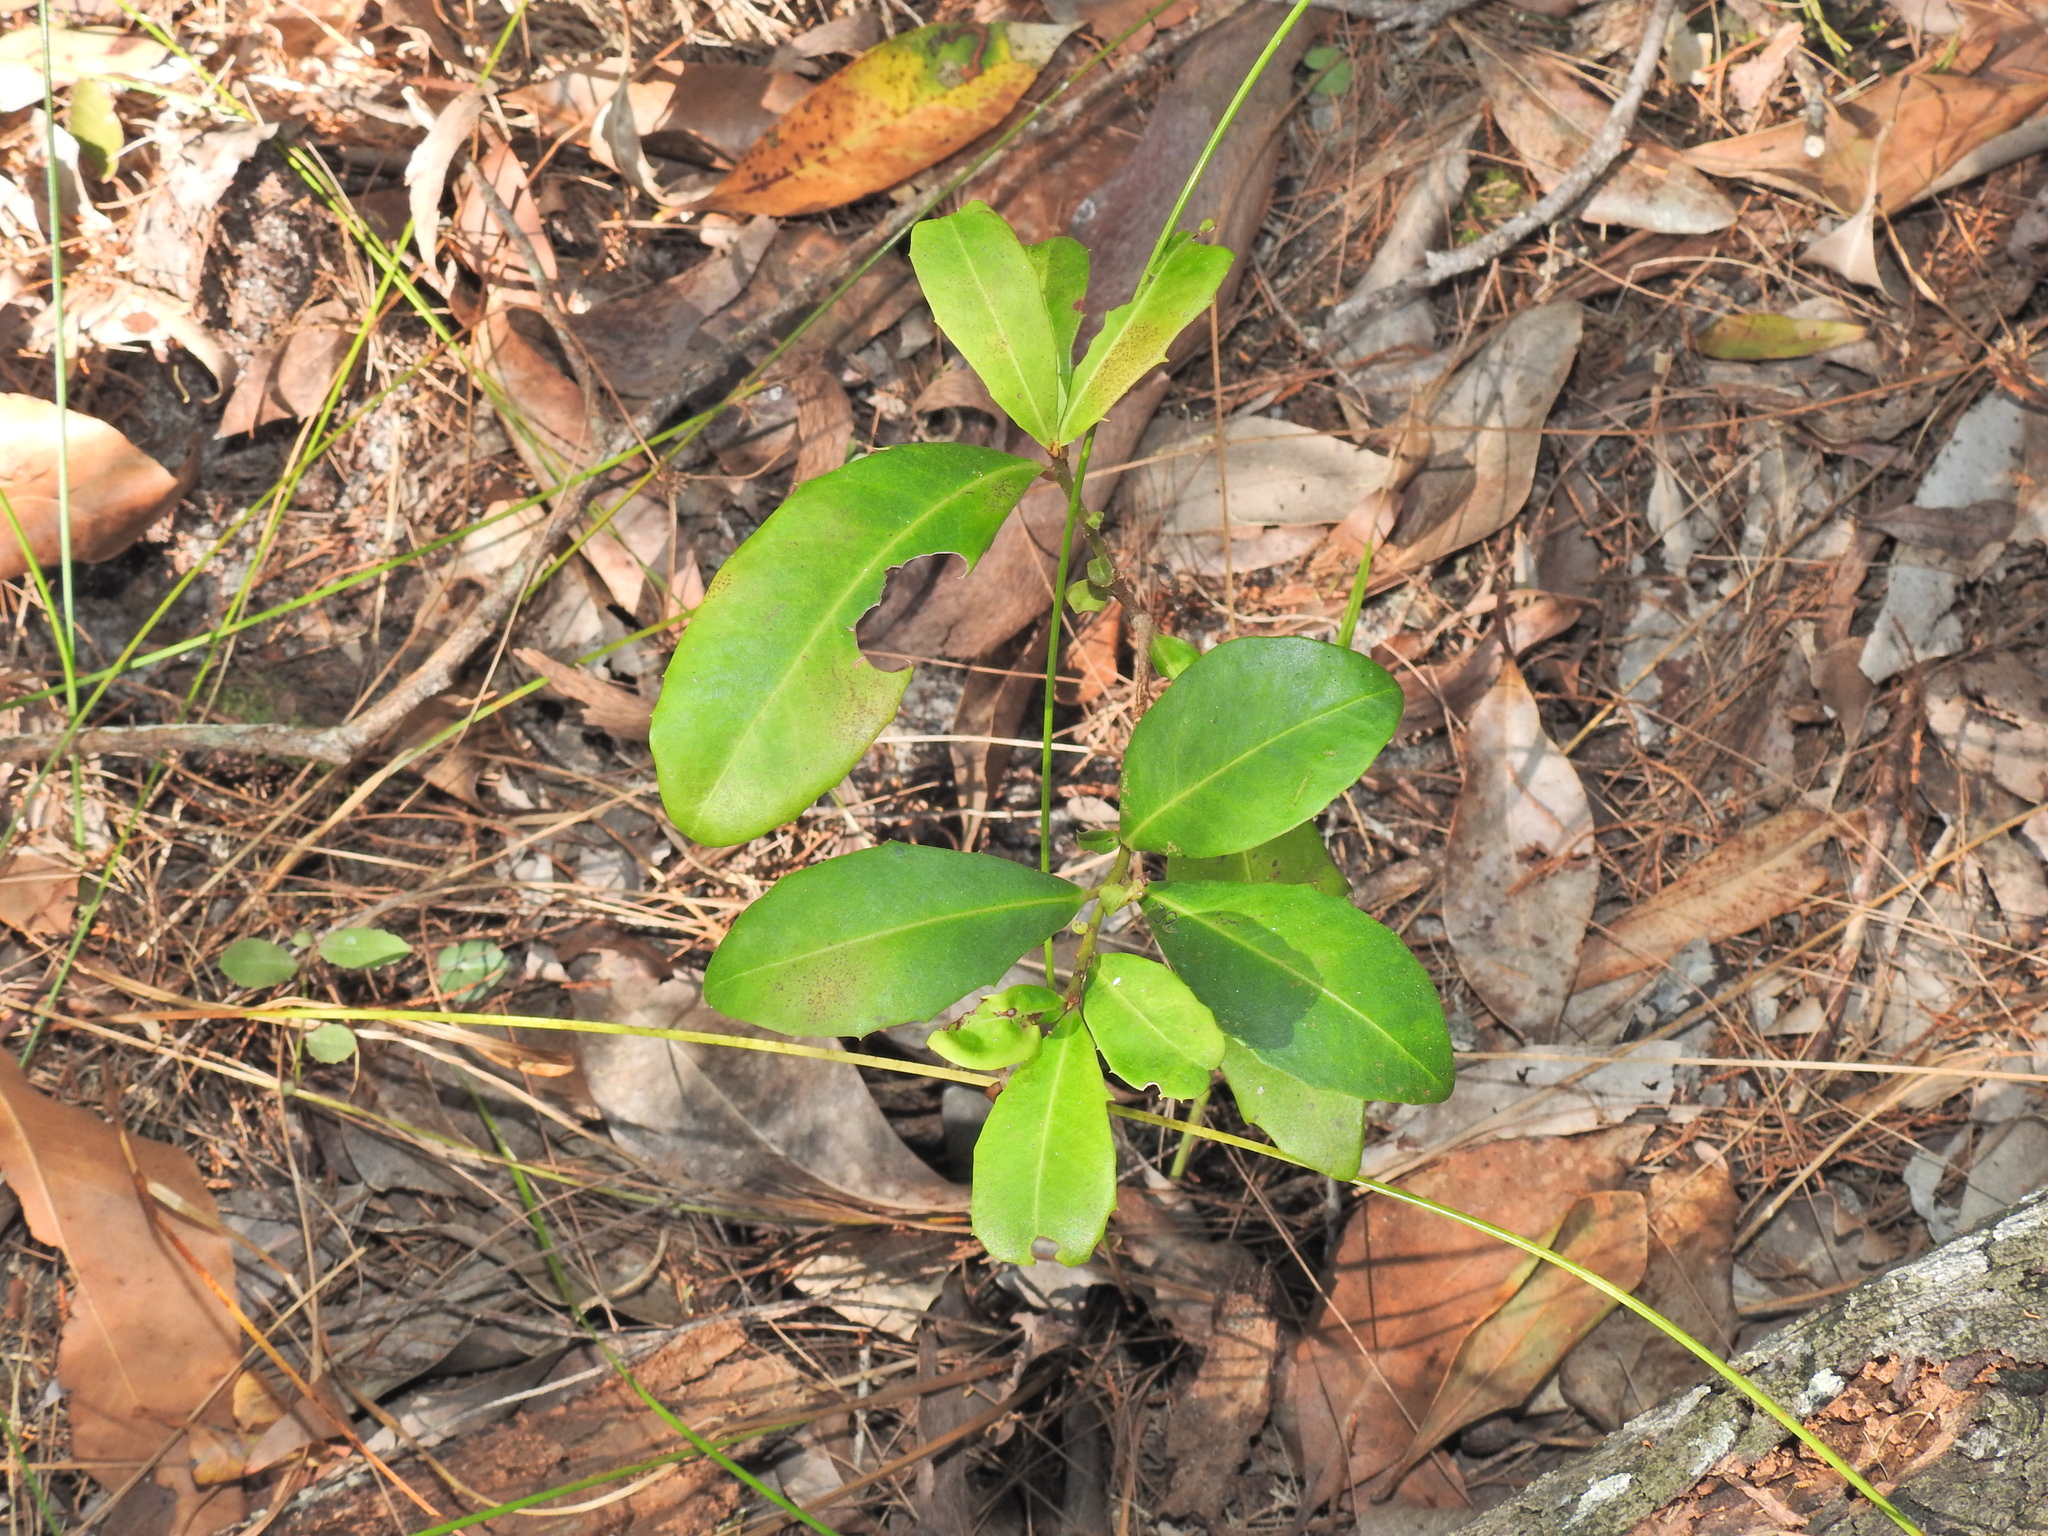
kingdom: Plantae
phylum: Tracheophyta
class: Magnoliopsida
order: Ericales
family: Primulaceae
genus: Myrsine
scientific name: Myrsine variabilis
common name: Brush muttonwood
